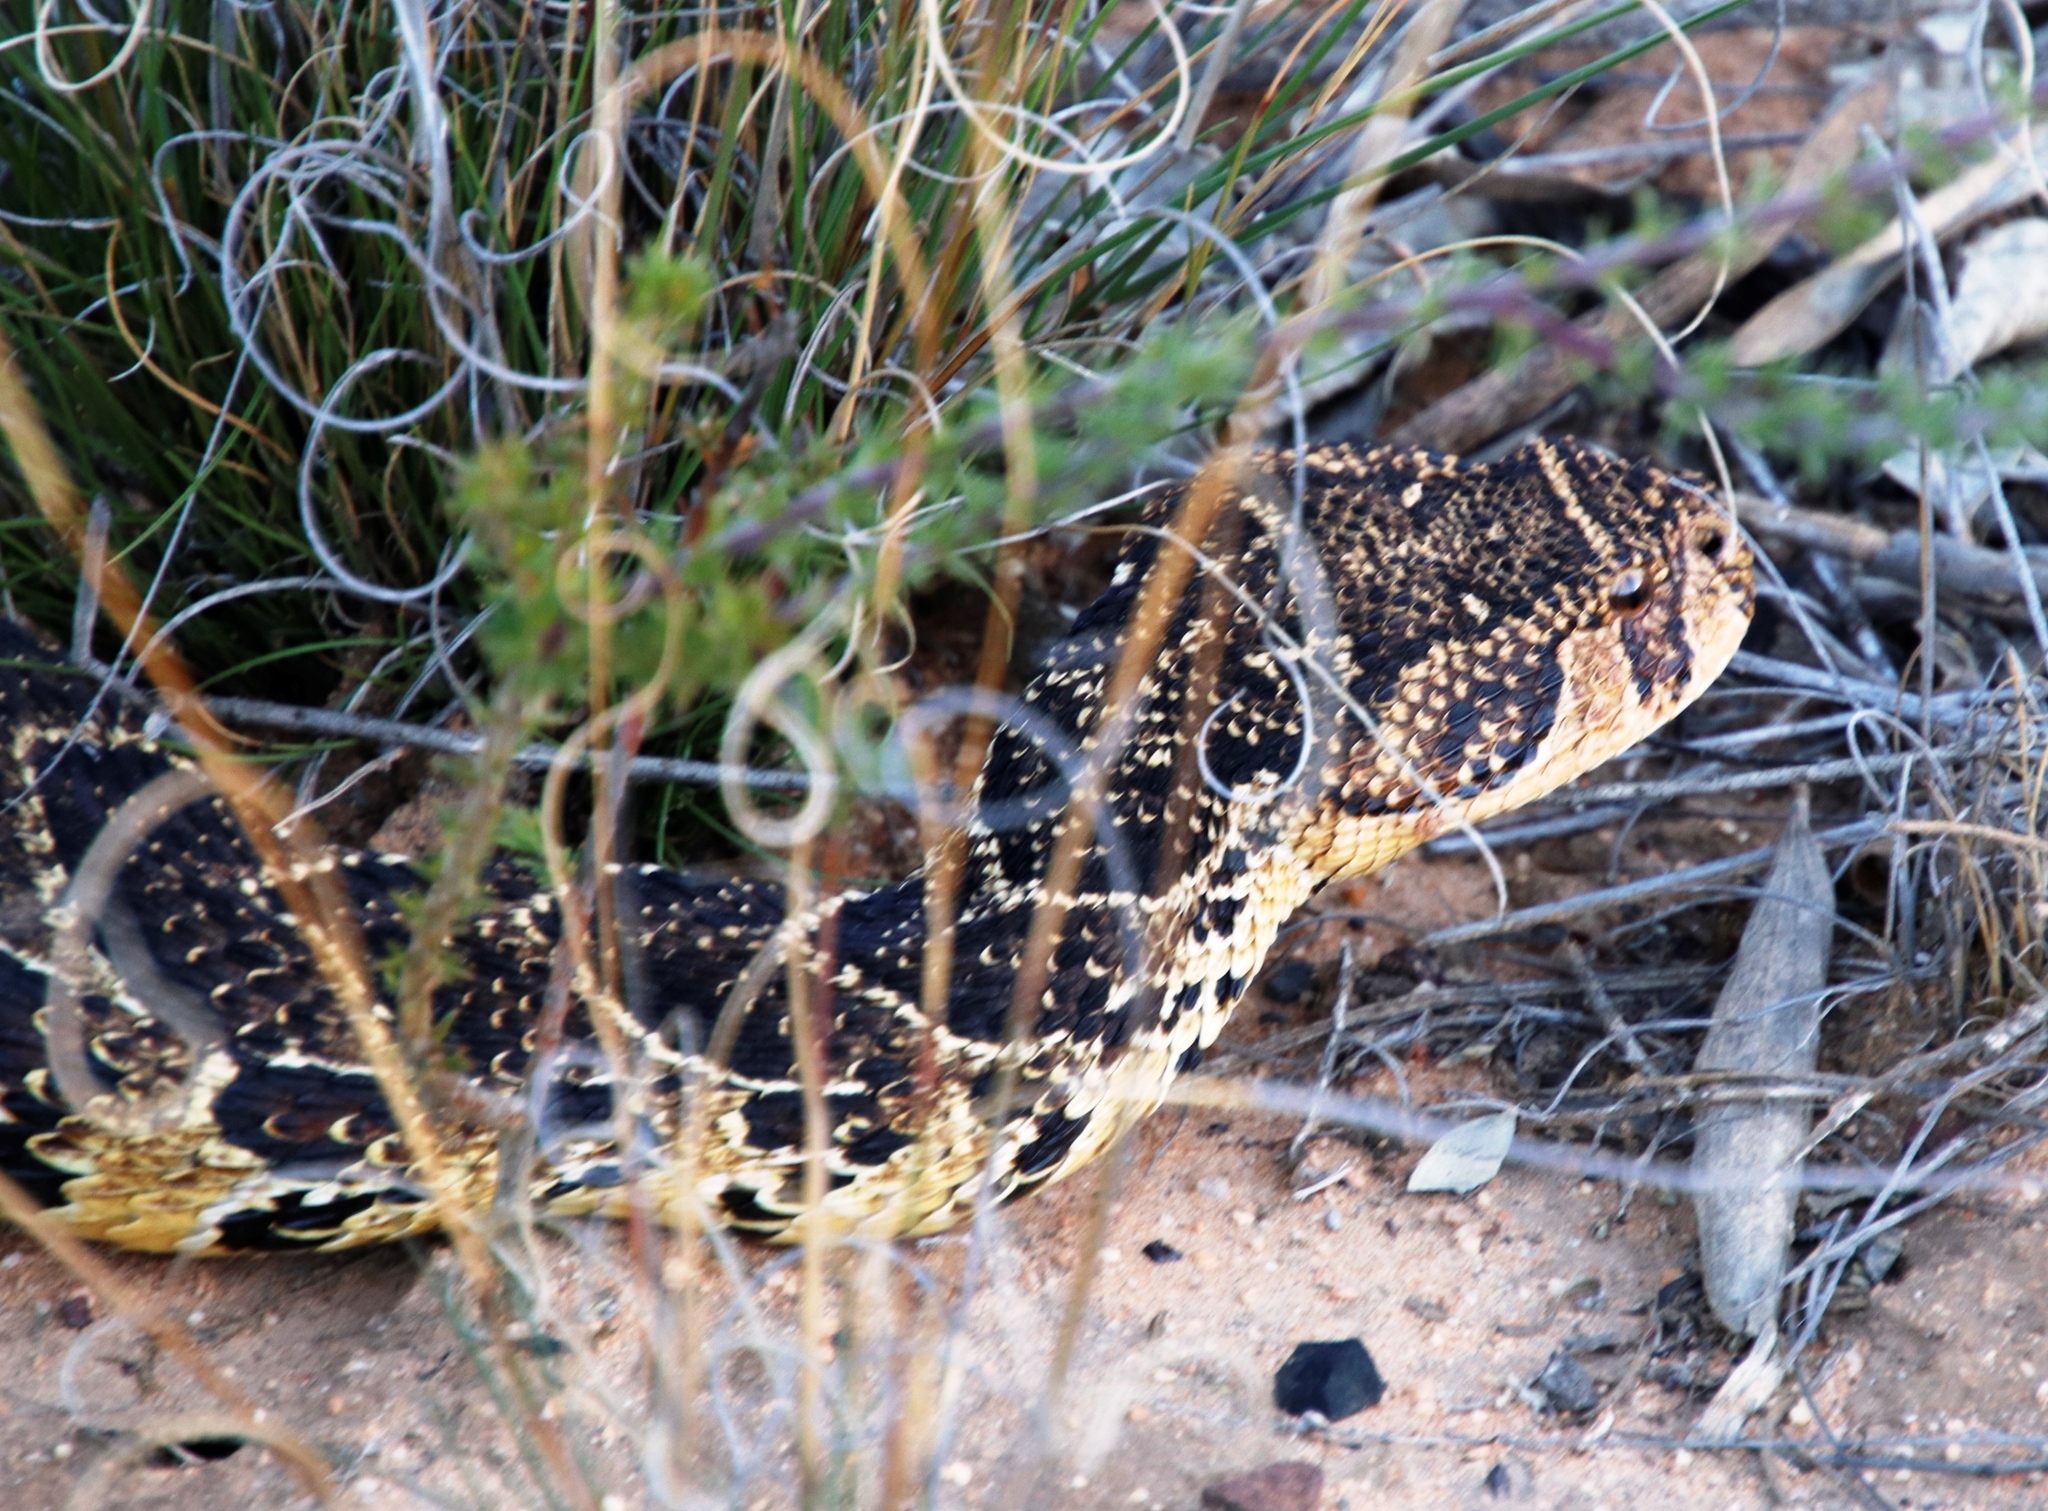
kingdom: Animalia
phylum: Chordata
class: Squamata
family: Viperidae
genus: Bitis
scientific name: Bitis arietans
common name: Puff adder
